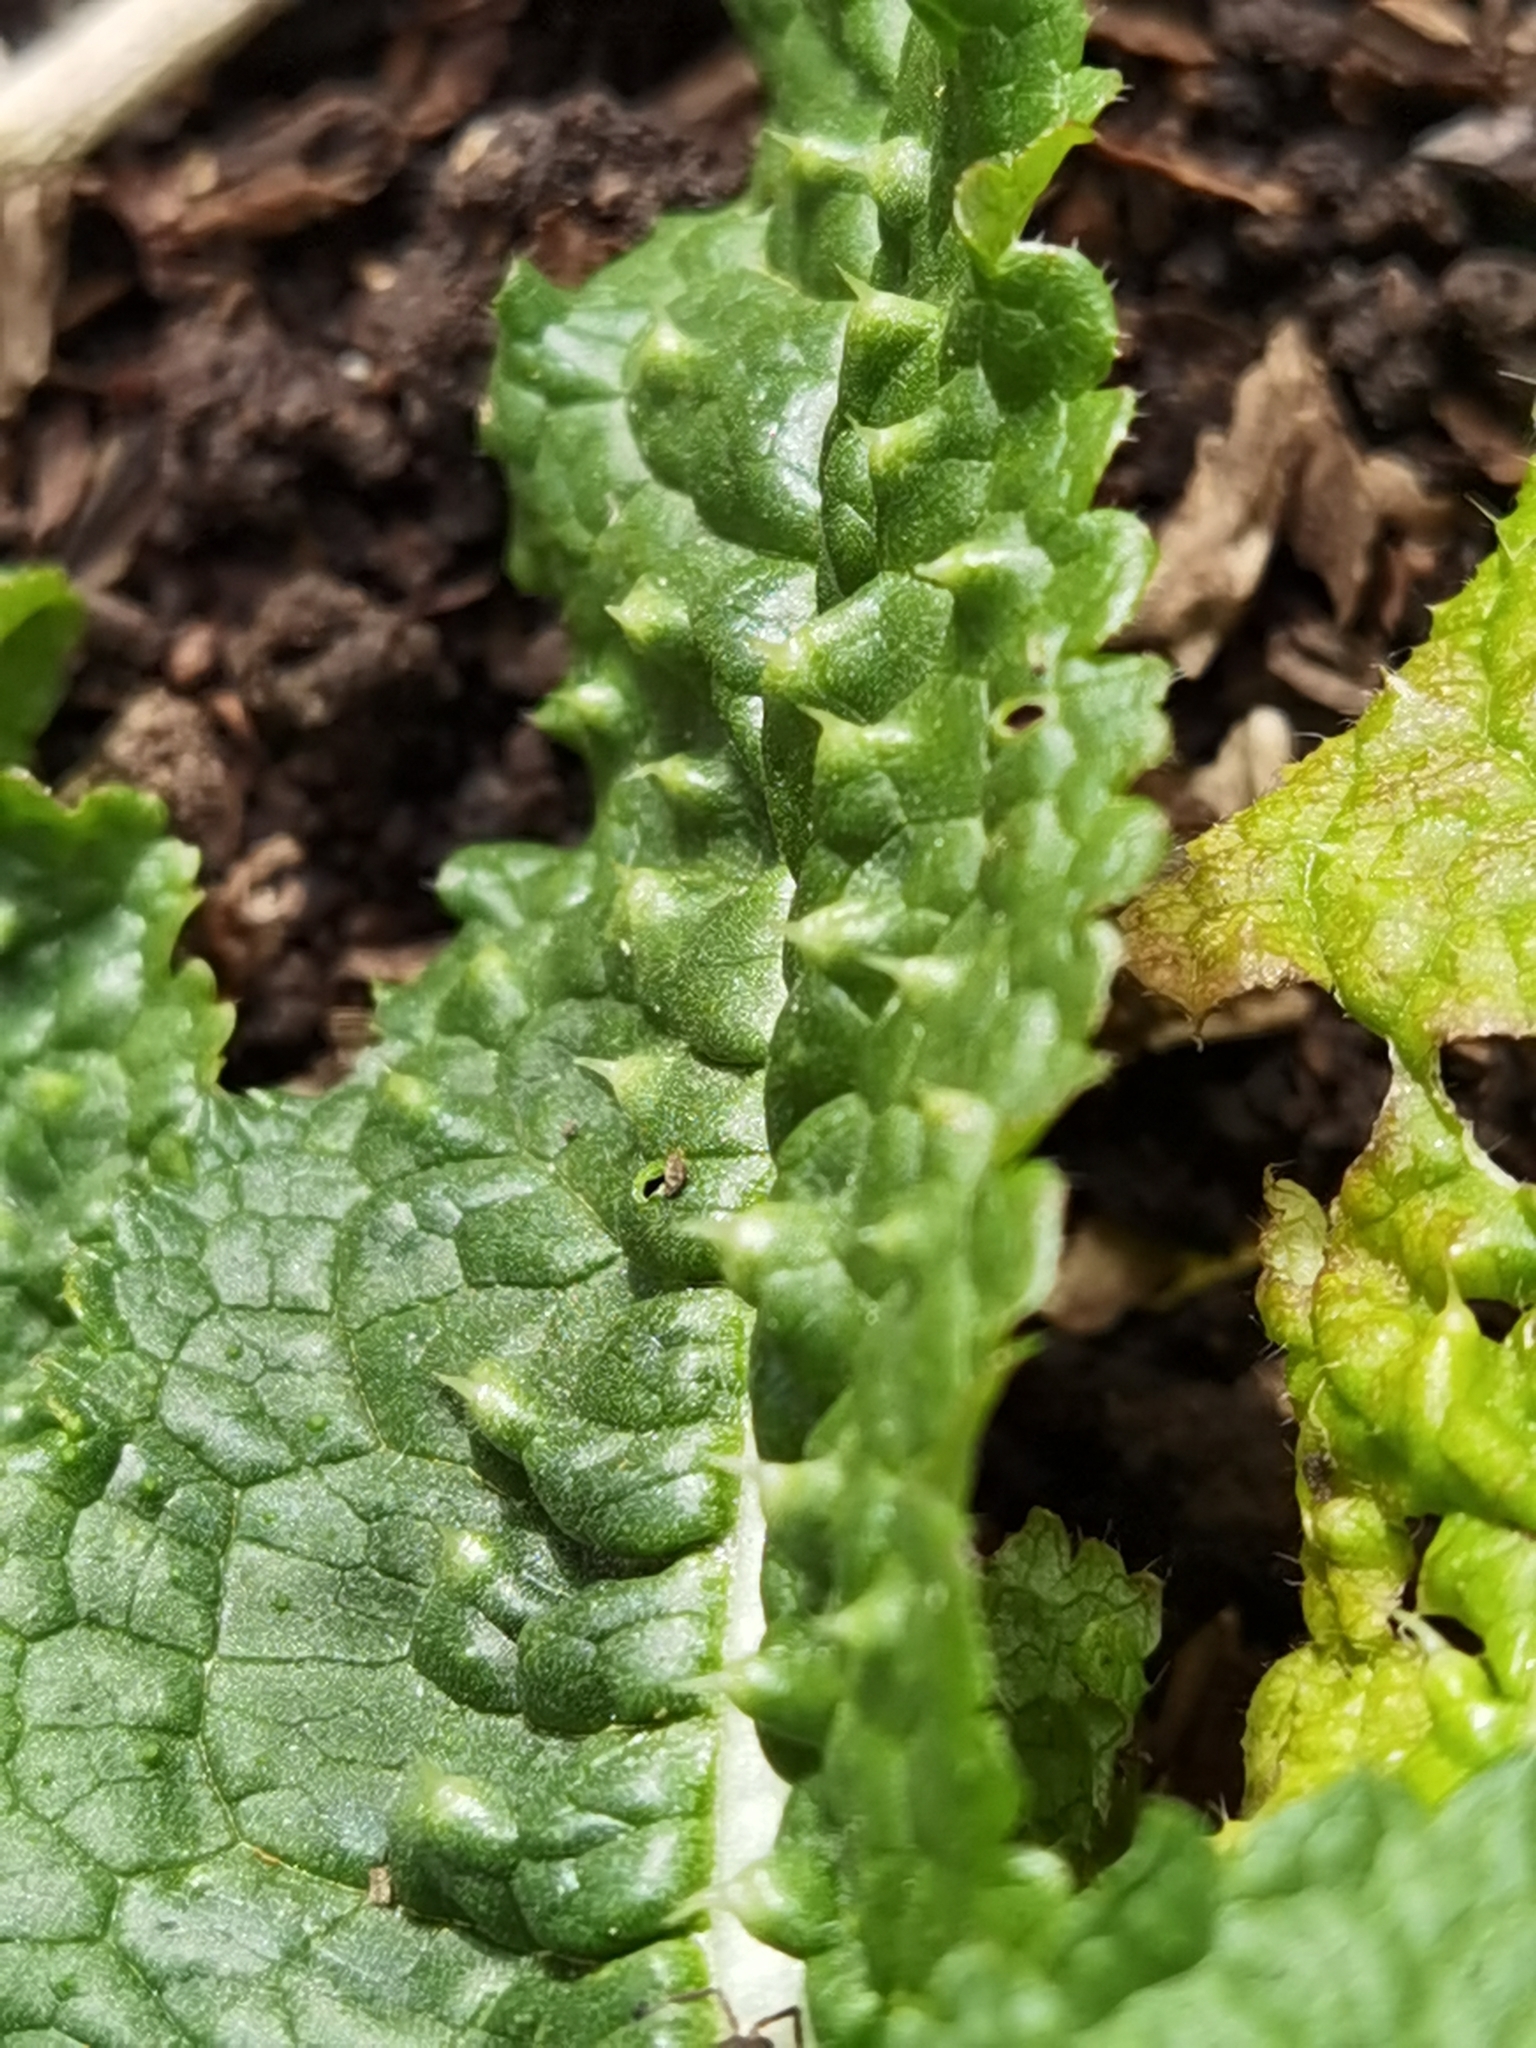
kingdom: Plantae
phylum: Tracheophyta
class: Magnoliopsida
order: Dipsacales
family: Caprifoliaceae
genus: Dipsacus
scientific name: Dipsacus fullonum
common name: Teasel
